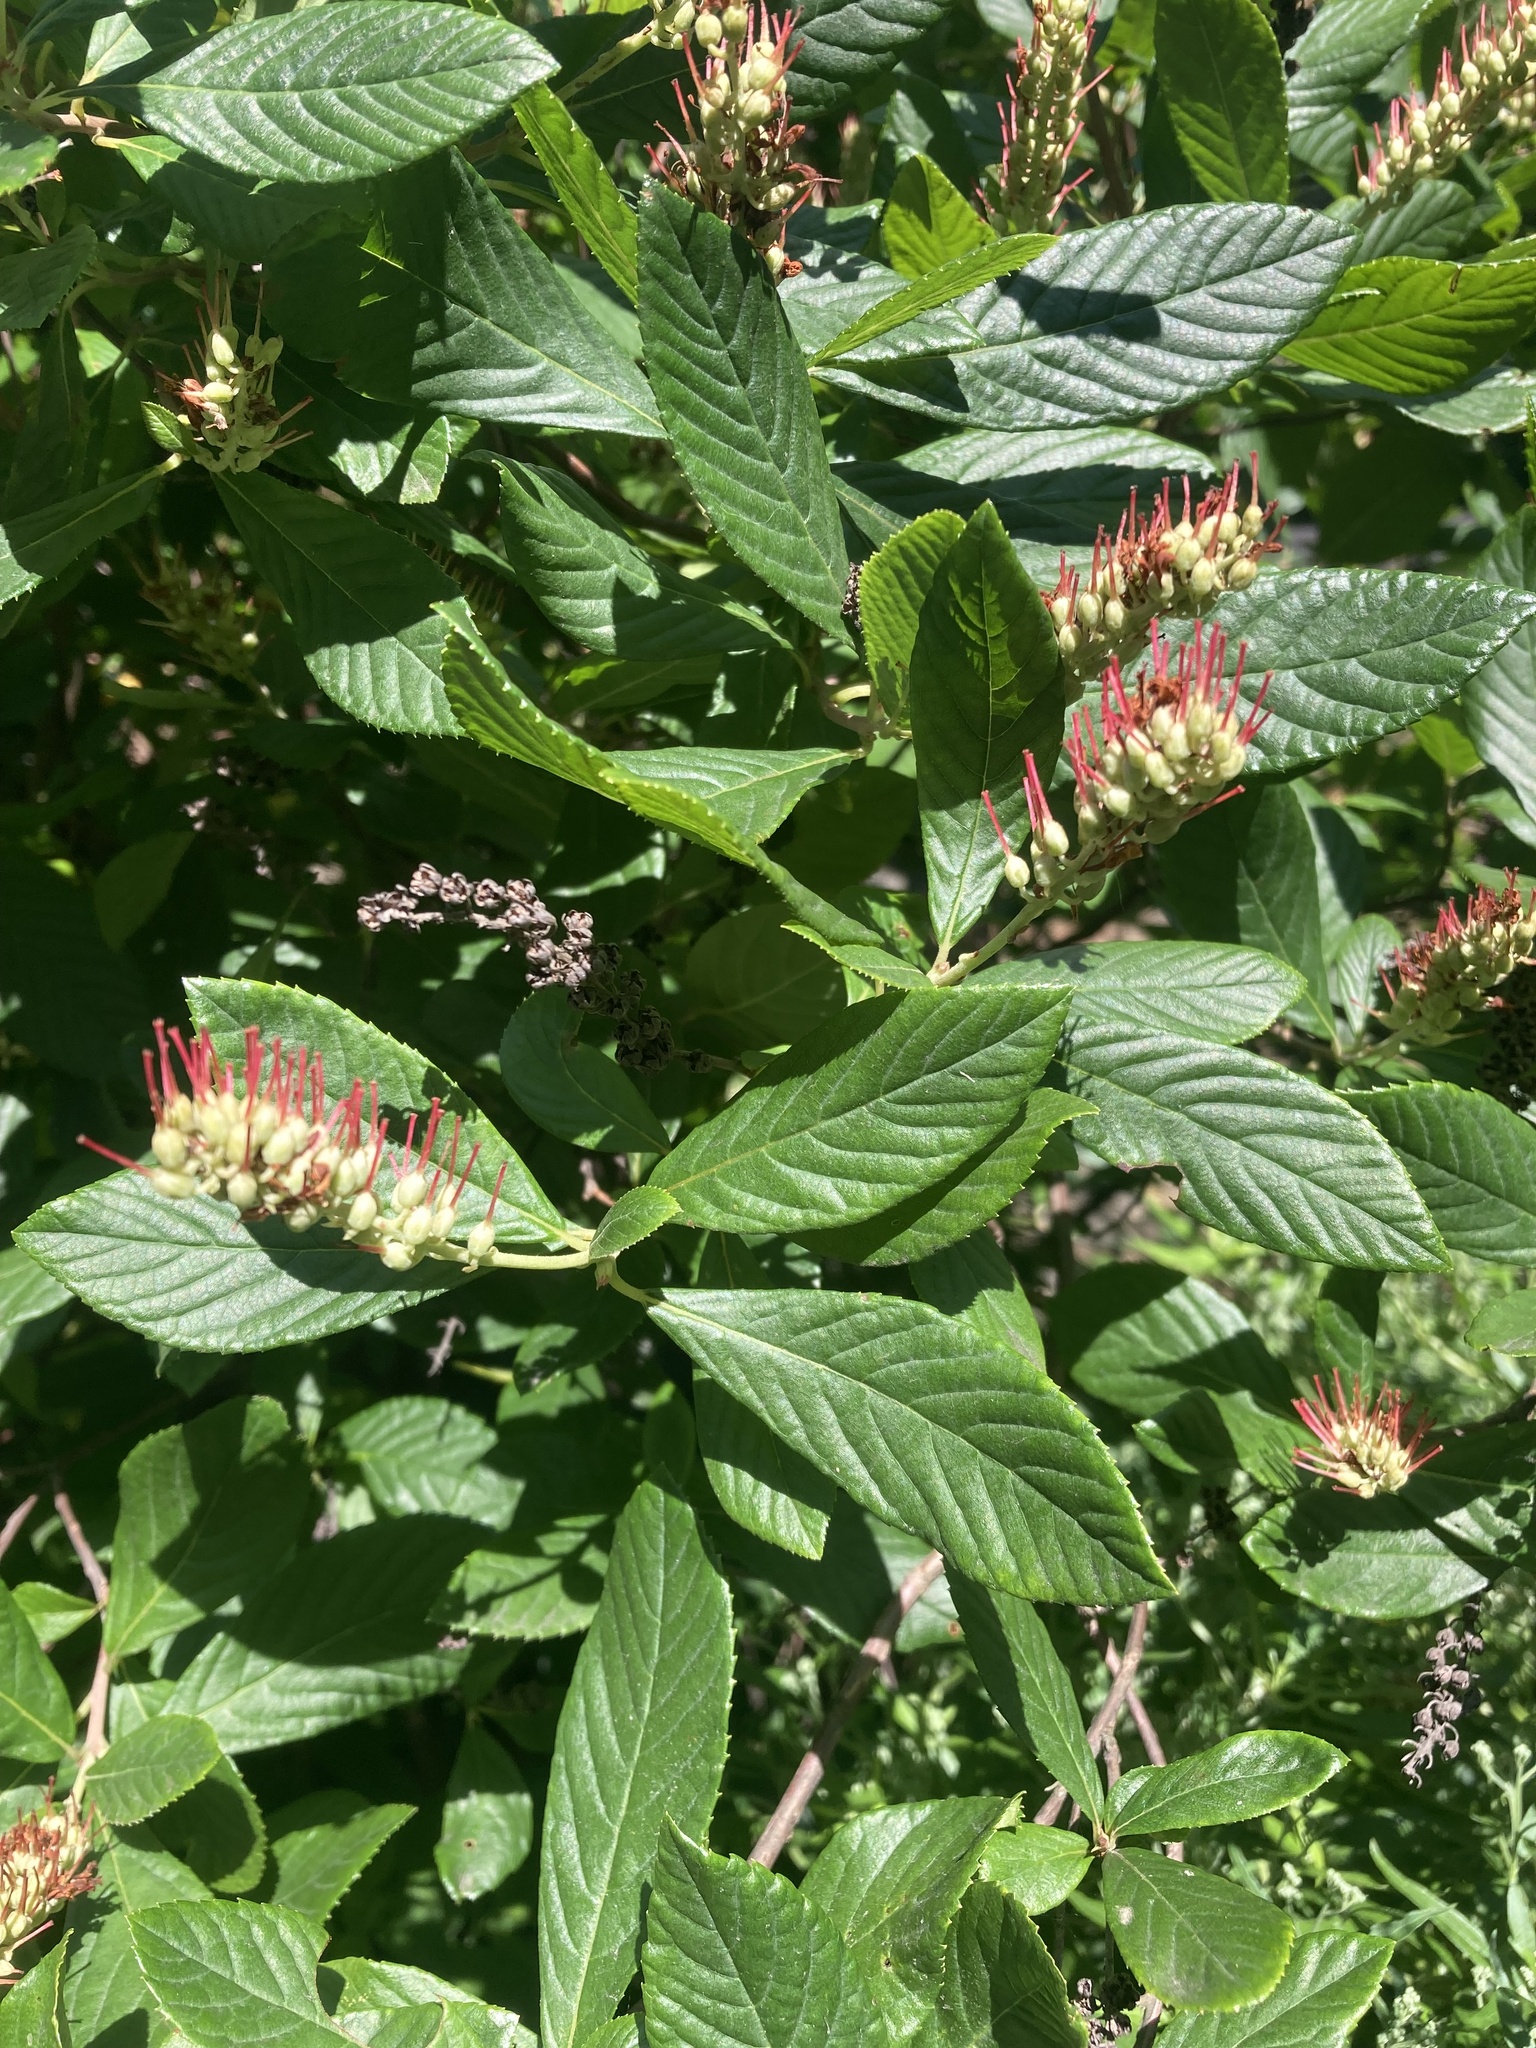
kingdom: Plantae
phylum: Tracheophyta
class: Magnoliopsida
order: Ericales
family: Clethraceae
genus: Clethra
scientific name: Clethra alnifolia
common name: Sweet pepperbush
